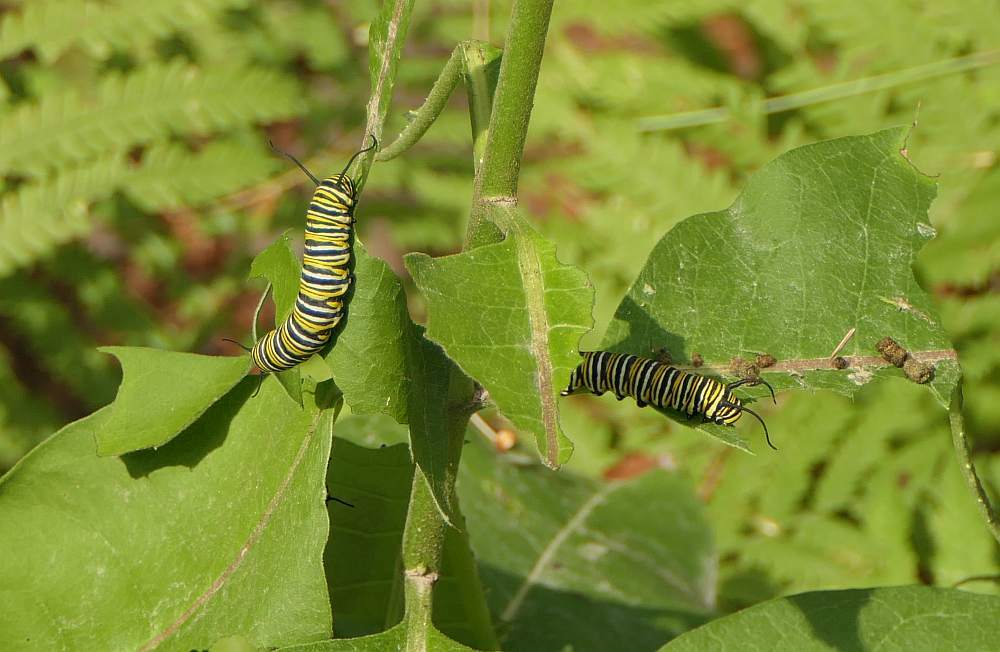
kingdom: Animalia
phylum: Arthropoda
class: Insecta
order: Lepidoptera
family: Nymphalidae
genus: Danaus
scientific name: Danaus plexippus
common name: Monarch
